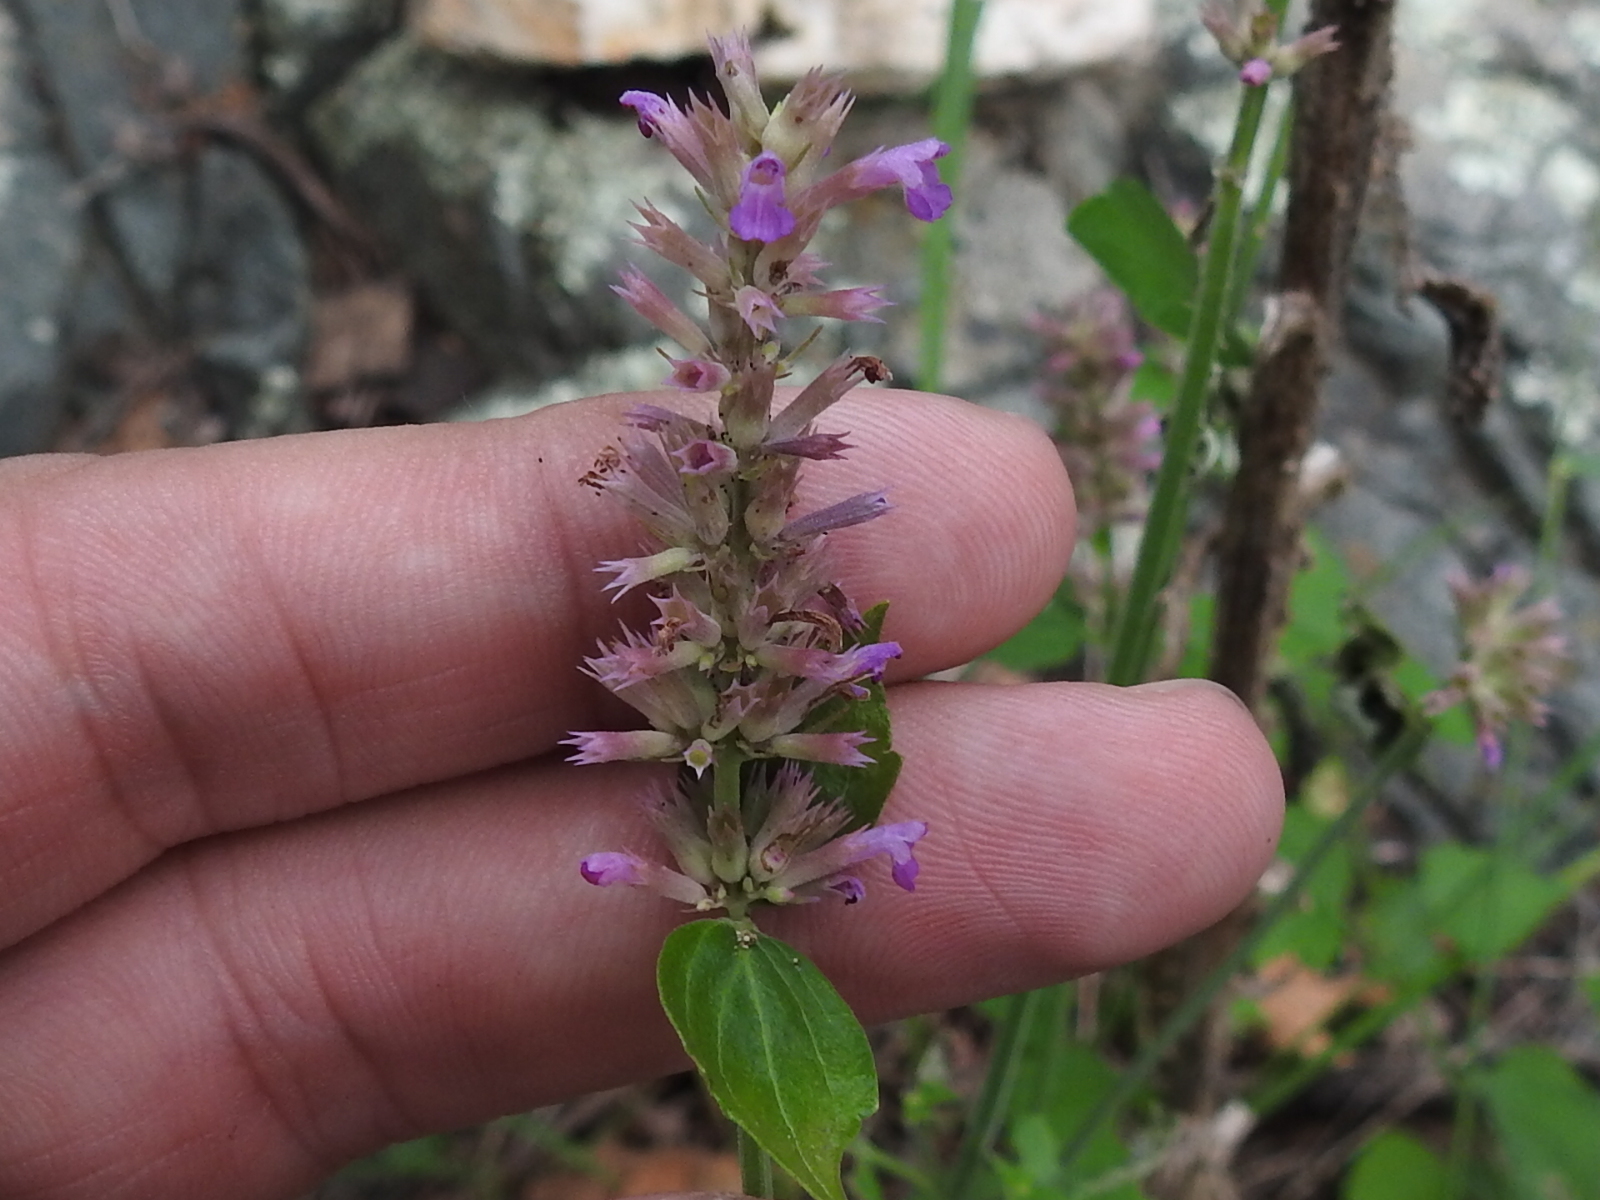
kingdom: Plantae
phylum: Tracheophyta
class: Magnoliopsida
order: Lamiales
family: Lamiaceae
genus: Agastache
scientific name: Agastache breviflora
